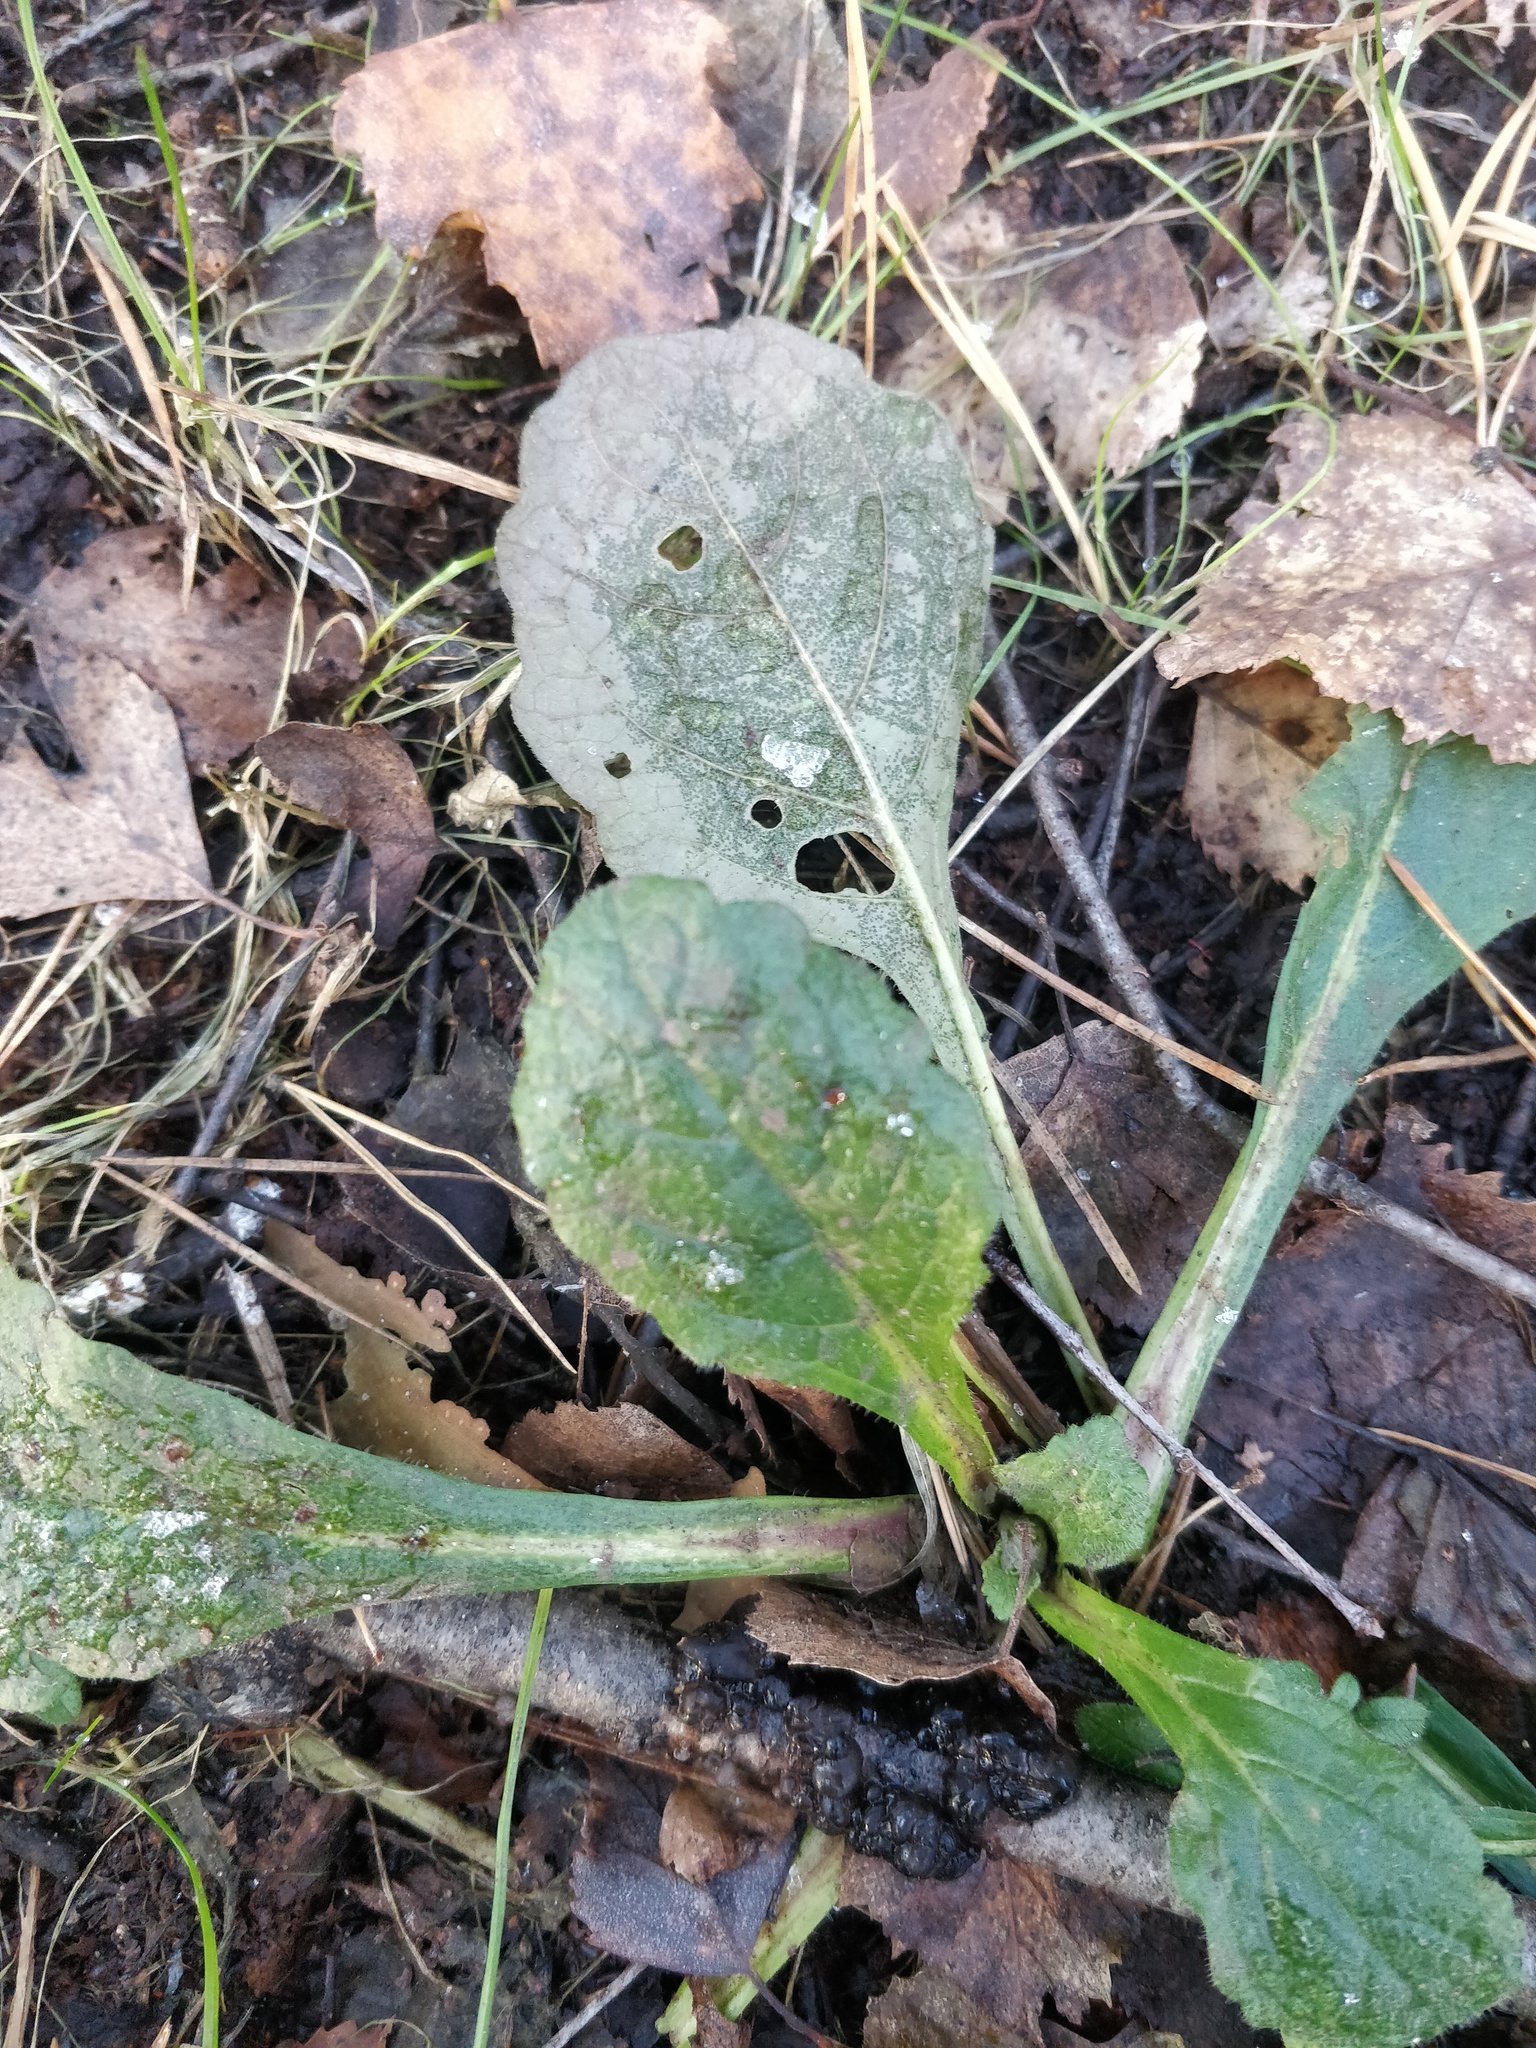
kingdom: Plantae
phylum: Tracheophyta
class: Magnoliopsida
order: Lamiales
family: Lamiaceae
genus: Ajuga
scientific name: Ajuga reptans
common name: Bugle
